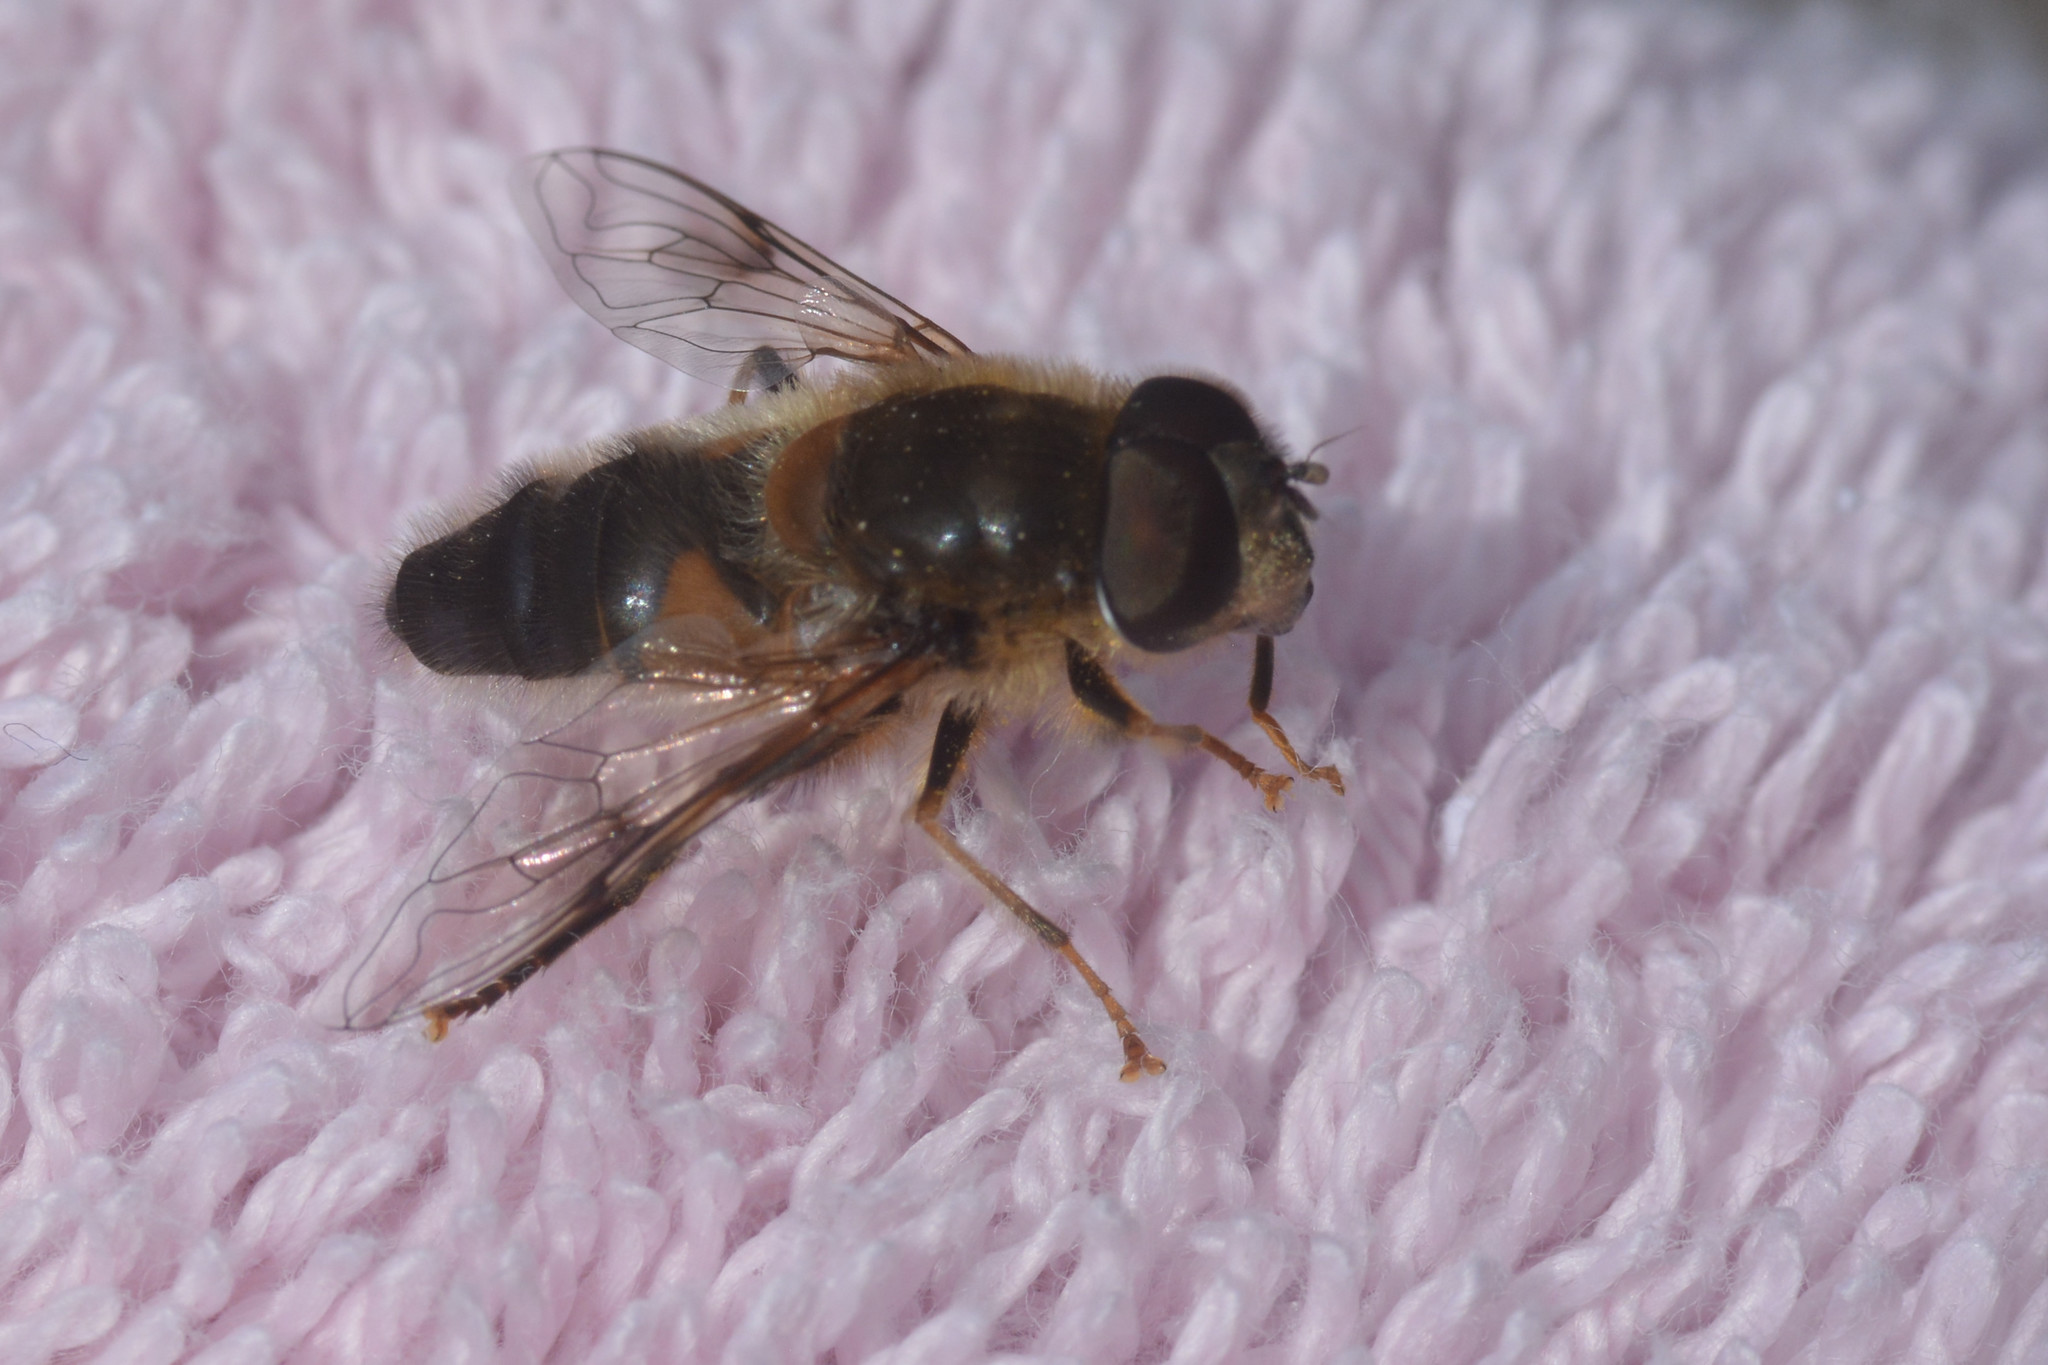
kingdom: Animalia
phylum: Arthropoda
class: Insecta
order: Diptera
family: Syrphidae
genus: Eristalis
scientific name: Eristalis pertinax
